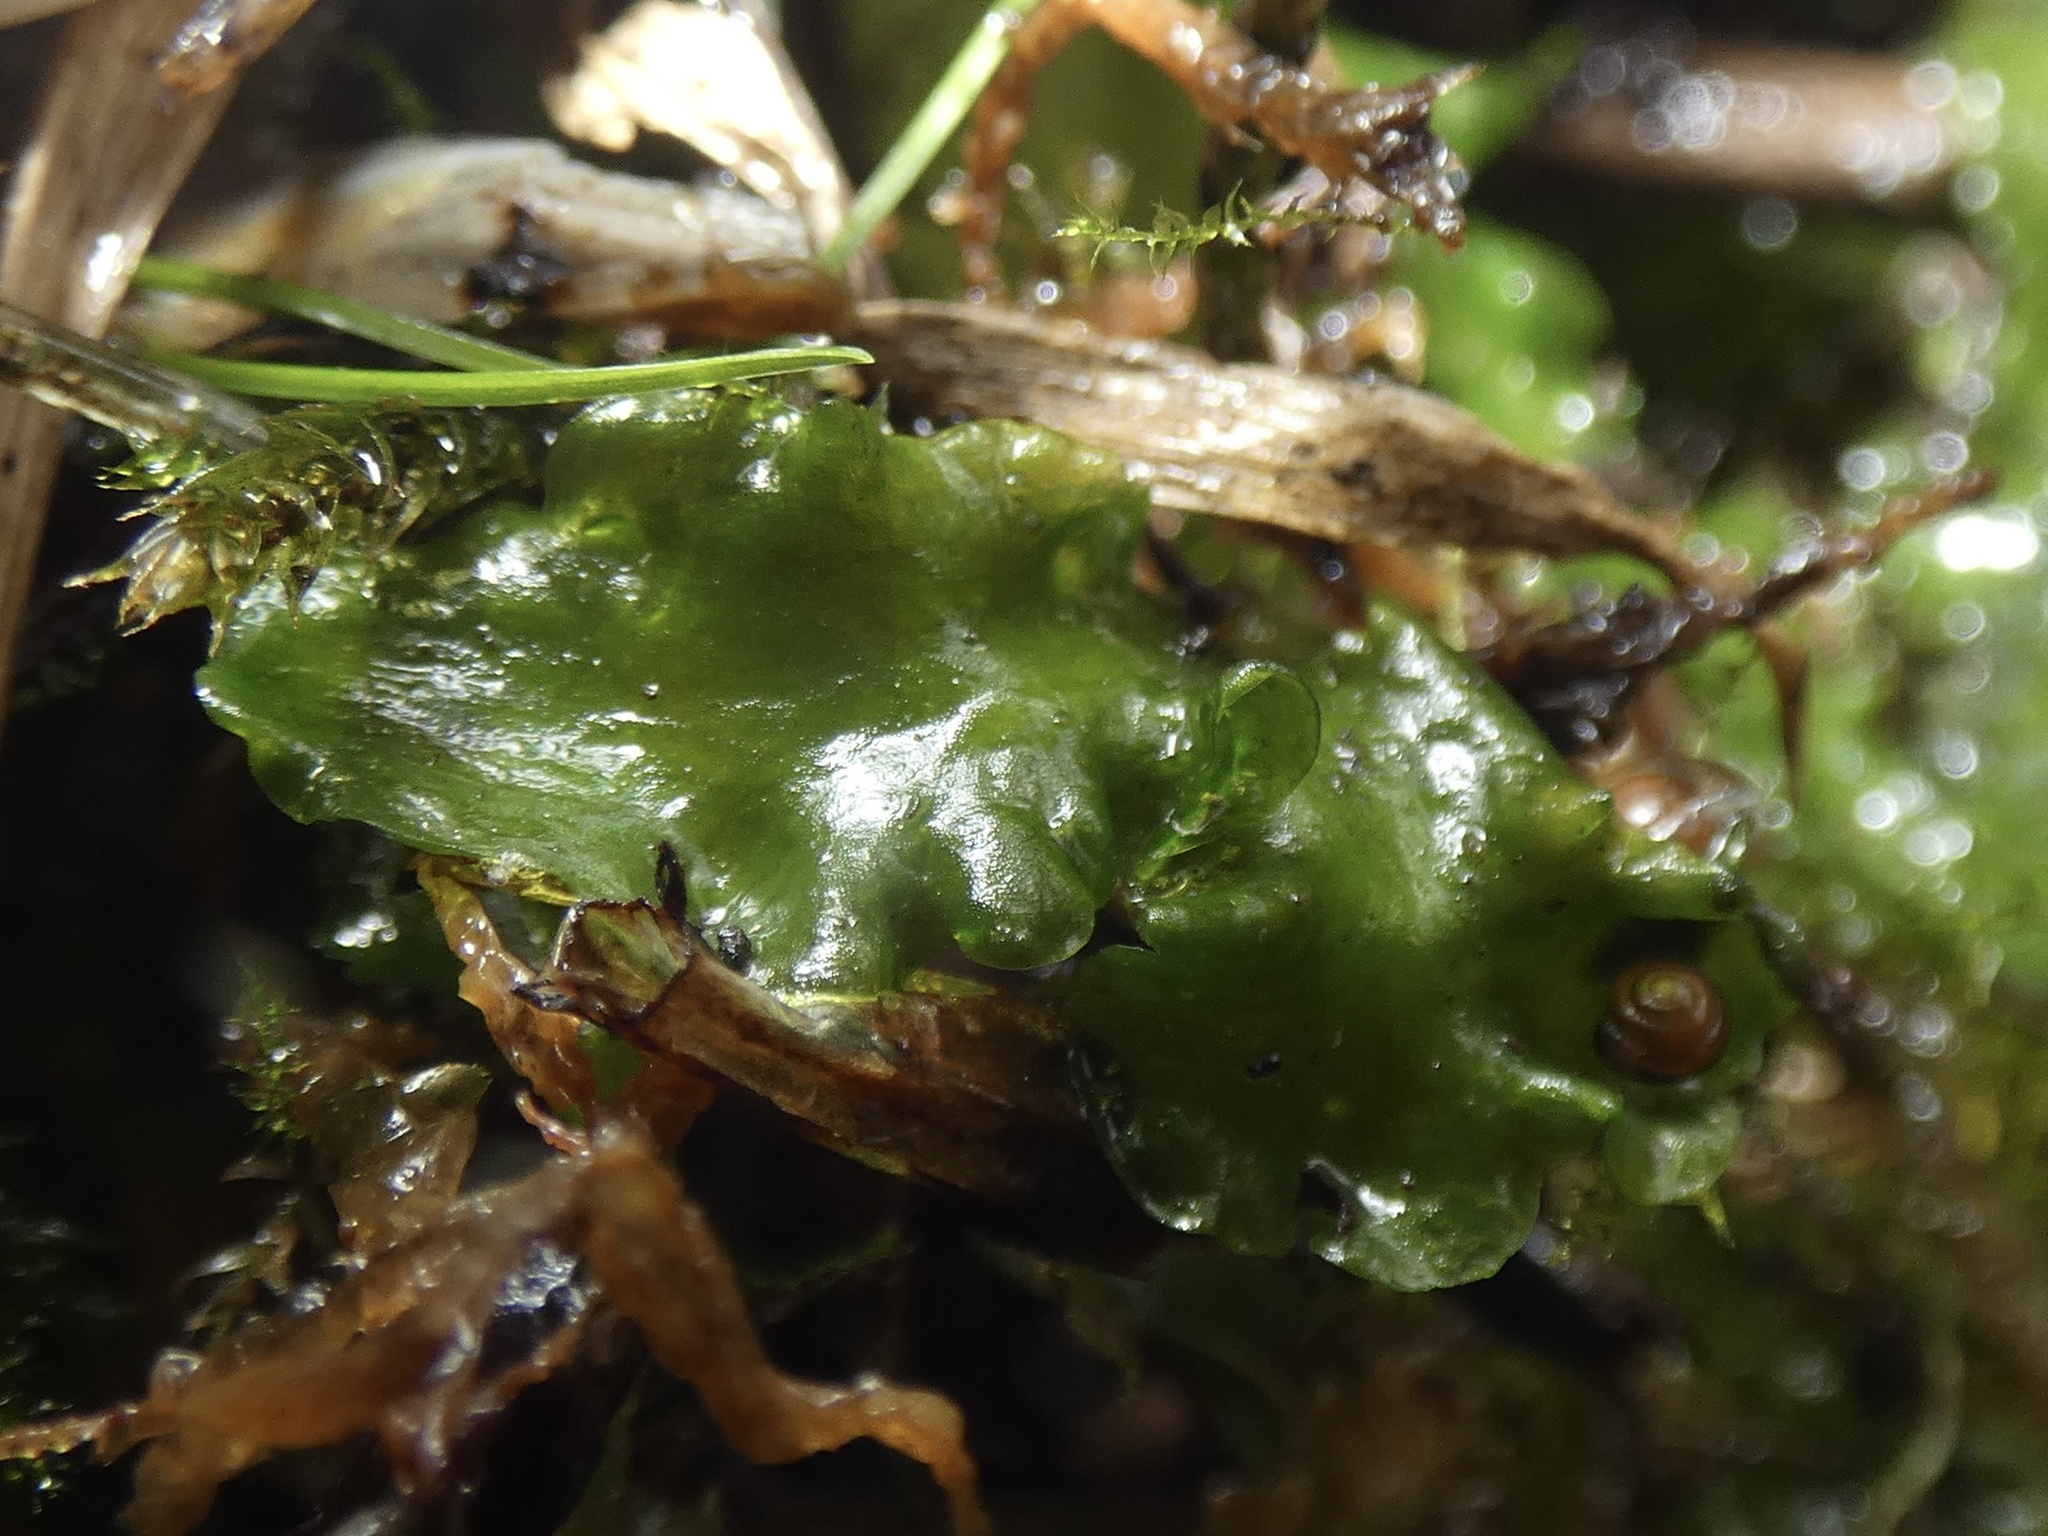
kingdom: Plantae
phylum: Marchantiophyta
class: Jungermanniopsida
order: Metzgeriales
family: Aneuraceae
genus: Aneura
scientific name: Aneura pinguis
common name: Common greasewort
